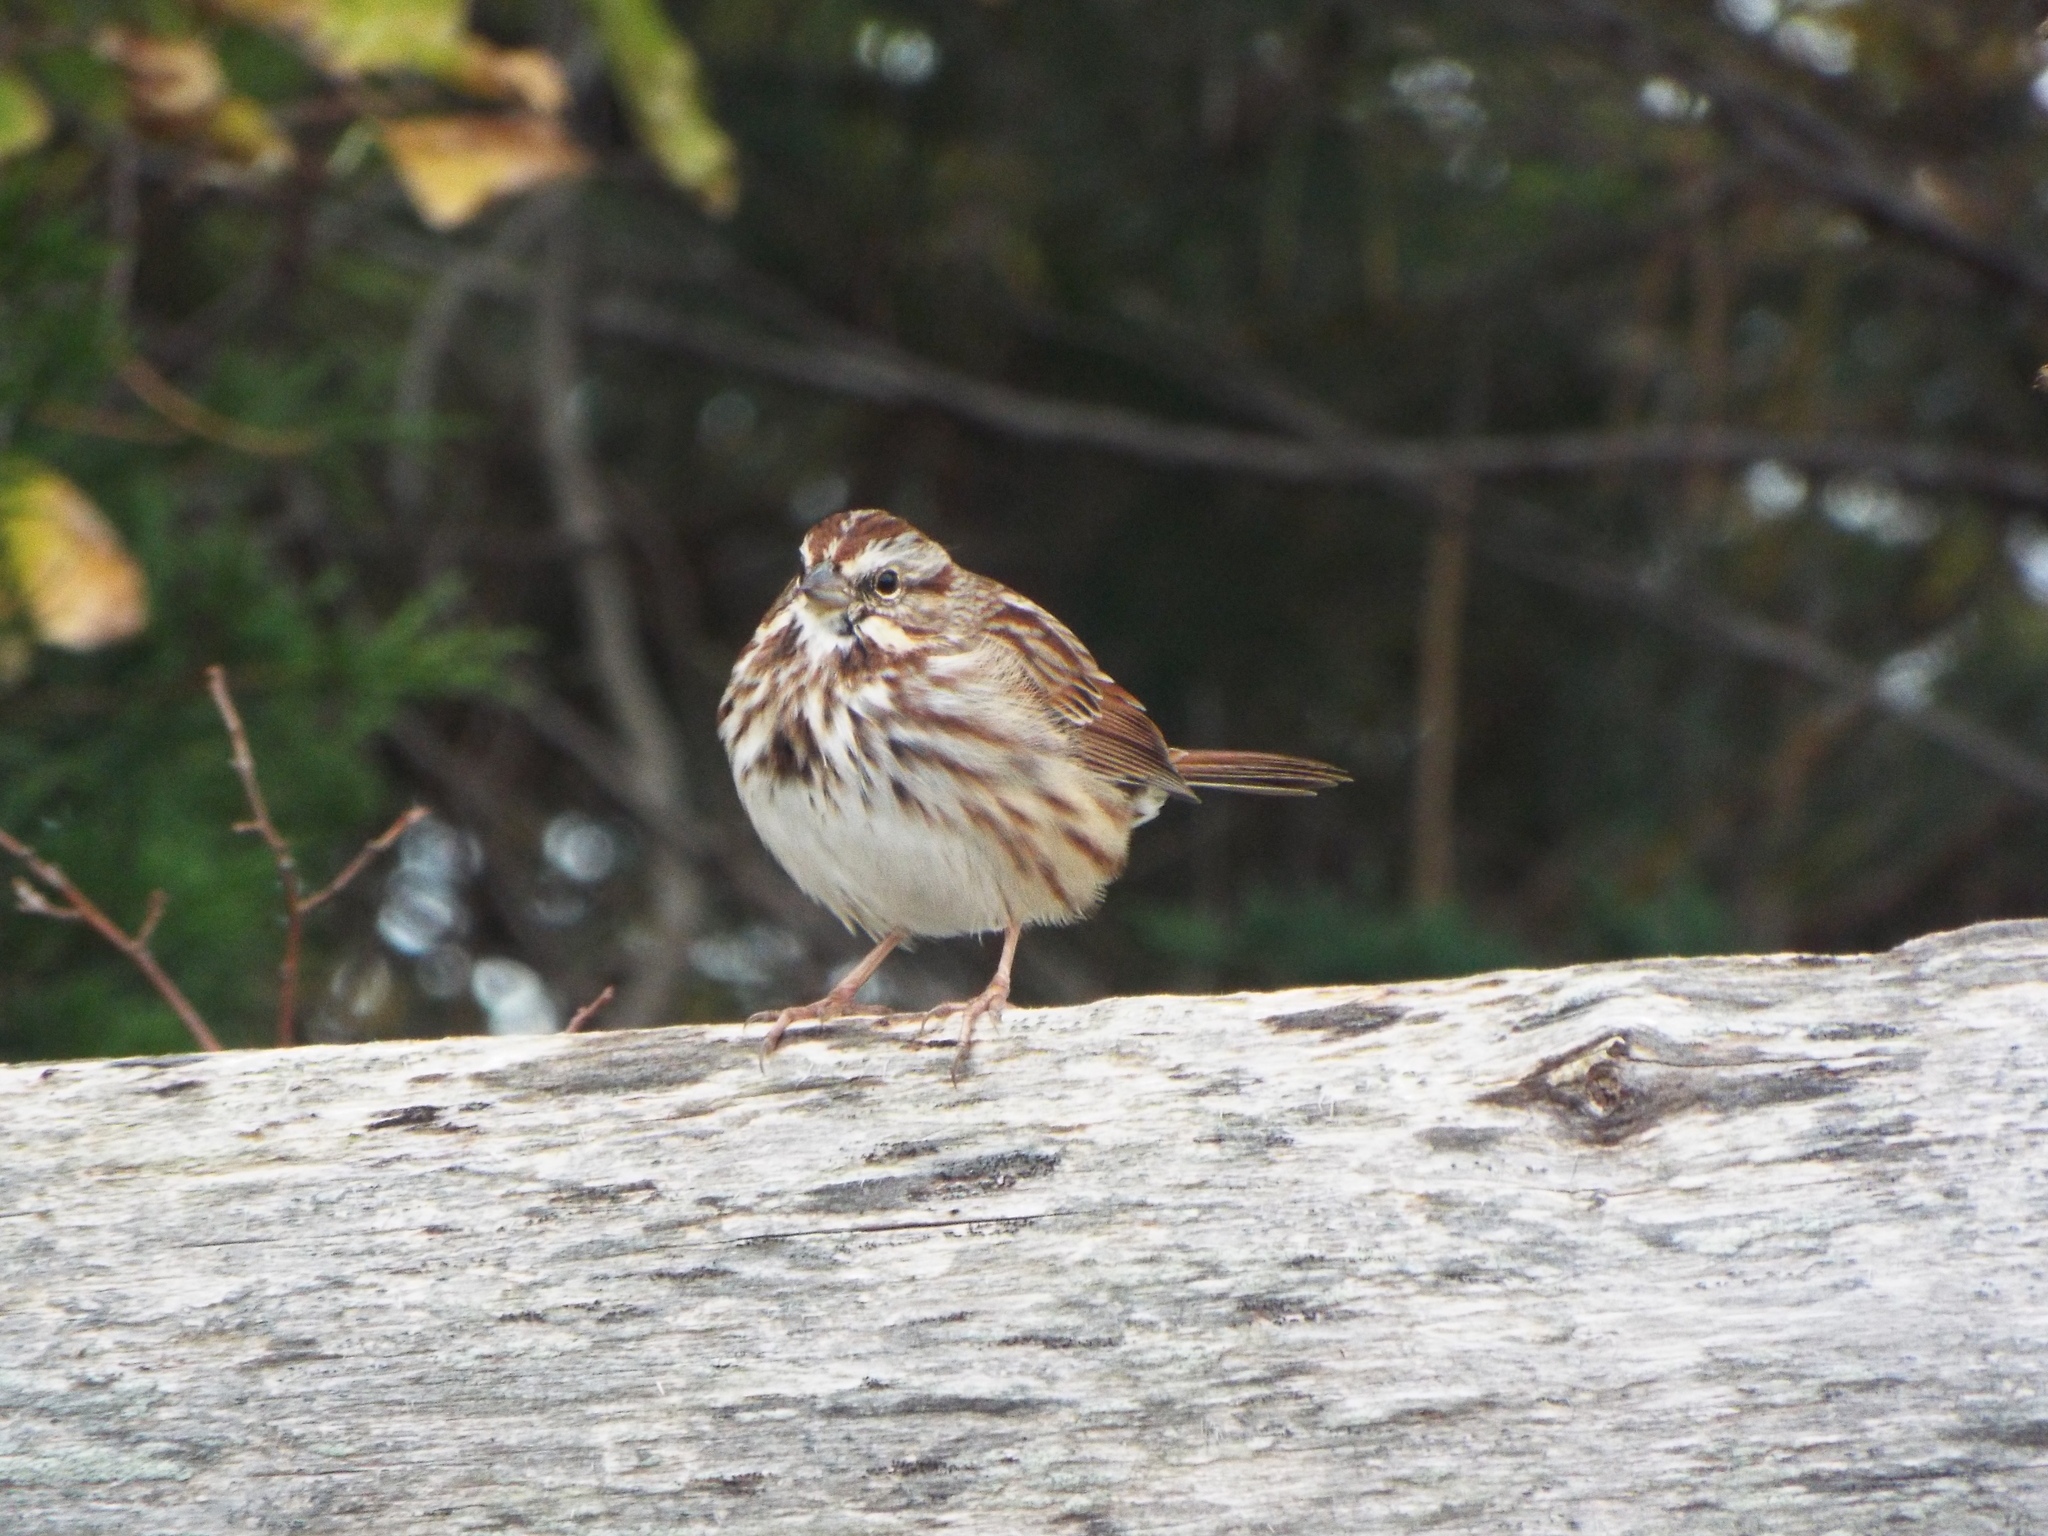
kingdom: Animalia
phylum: Chordata
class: Aves
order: Passeriformes
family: Passerellidae
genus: Melospiza
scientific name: Melospiza melodia
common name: Song sparrow
